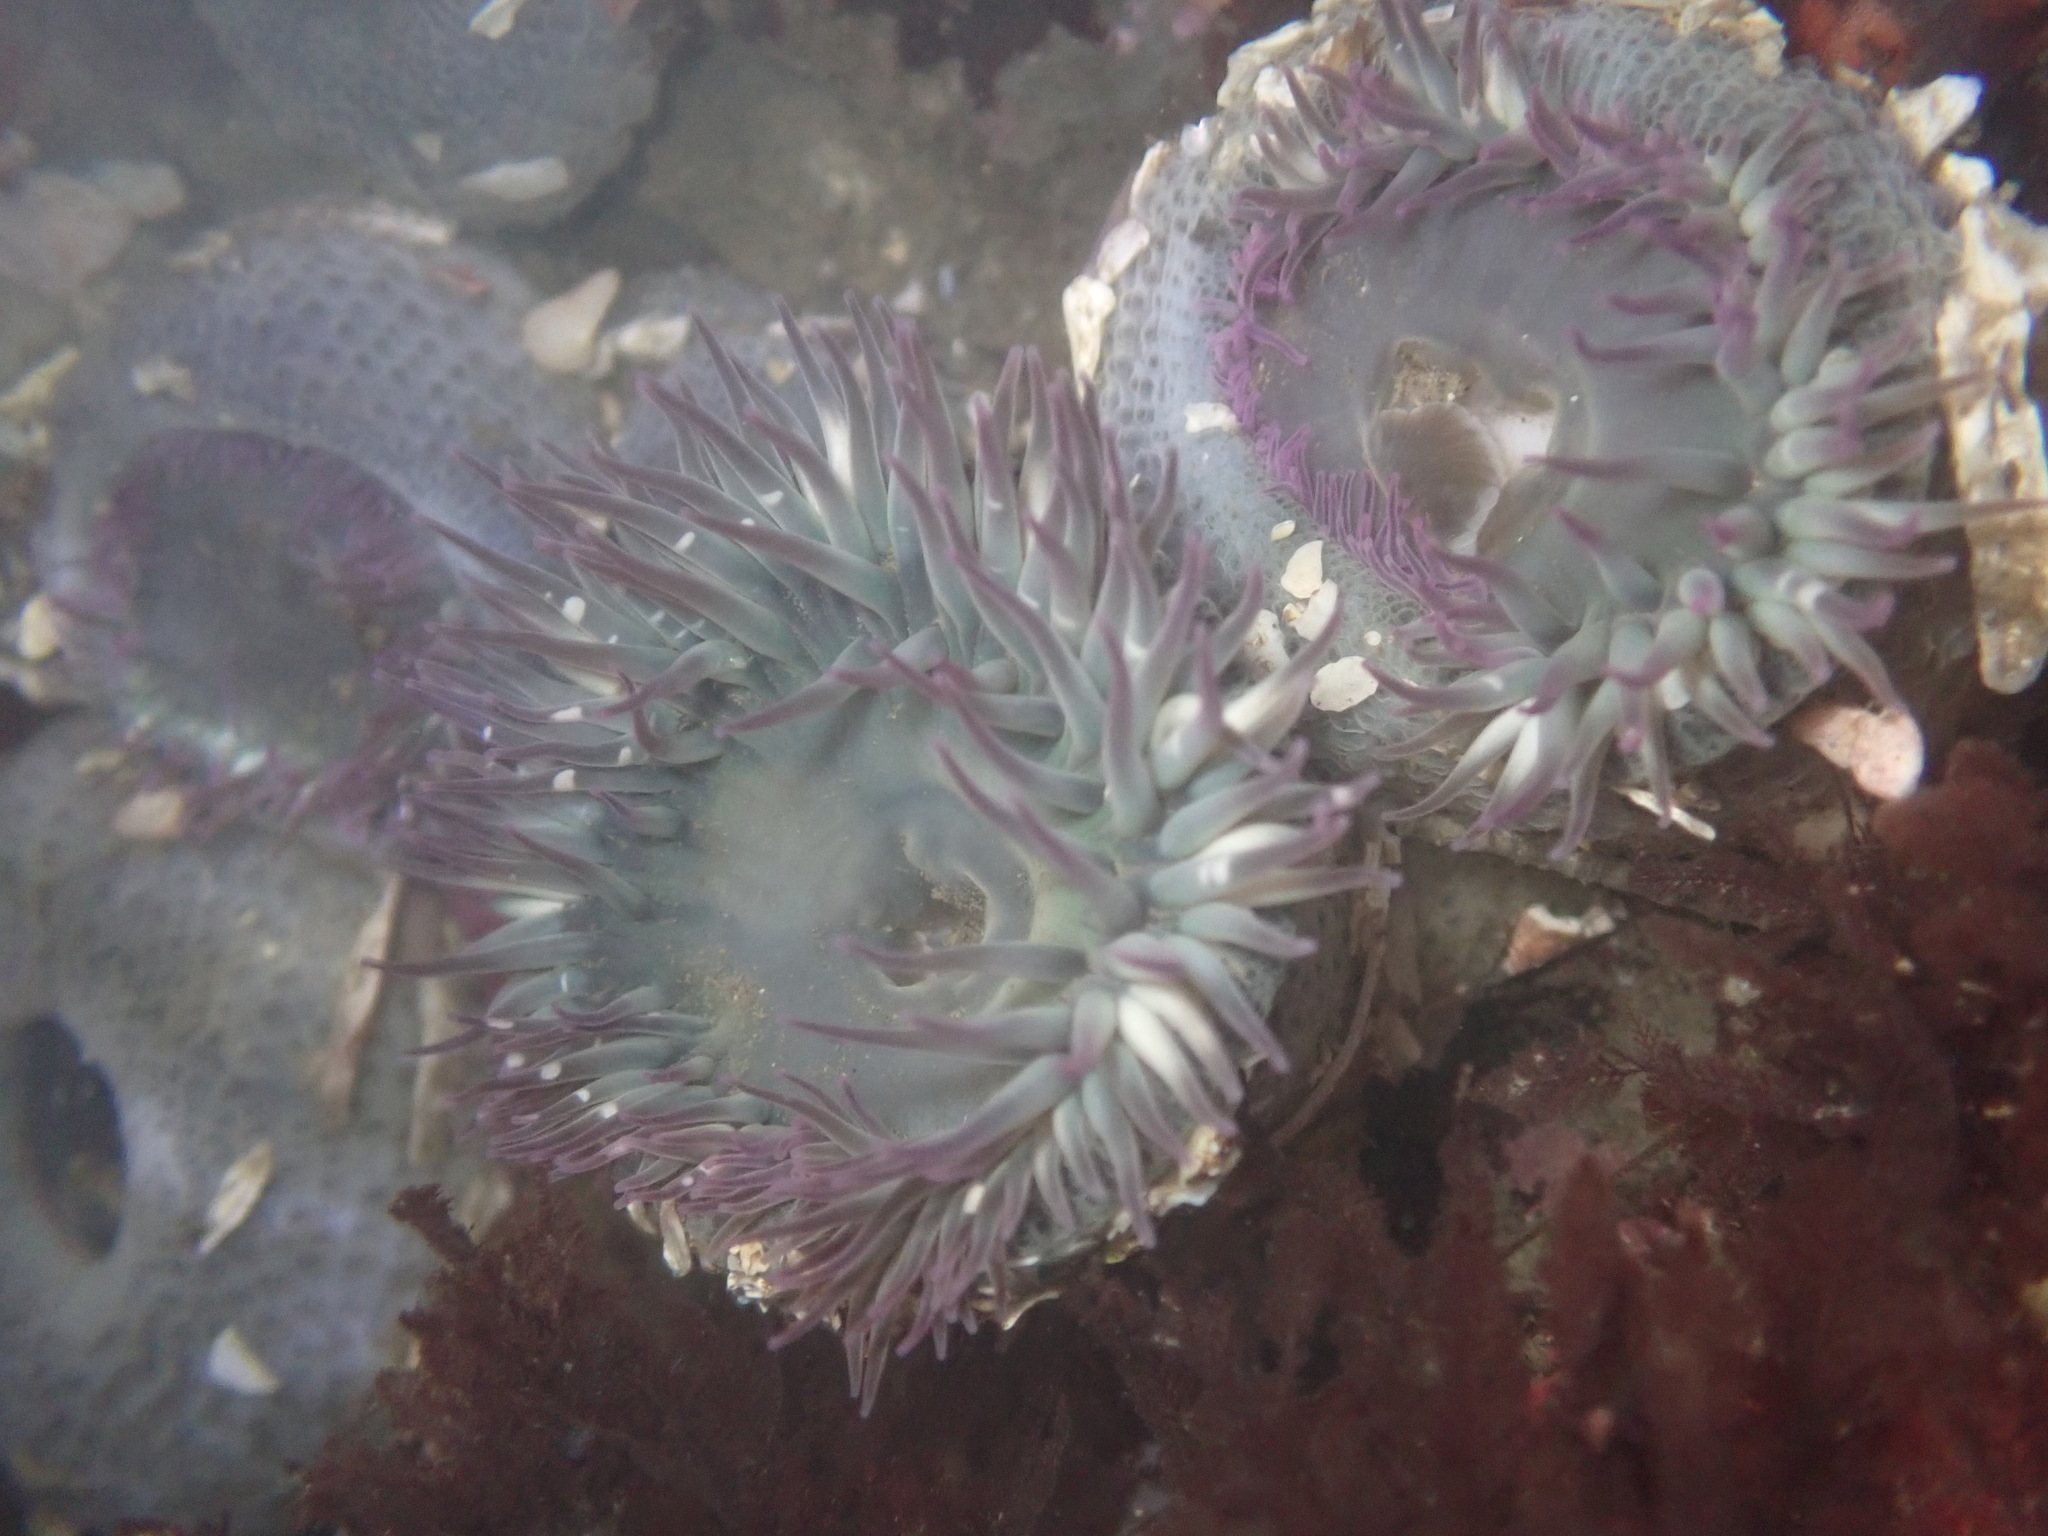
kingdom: Animalia
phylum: Cnidaria
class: Anthozoa
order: Actiniaria
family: Actiniidae
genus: Anthopleura
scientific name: Anthopleura elegantissima
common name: Clonal anemone
